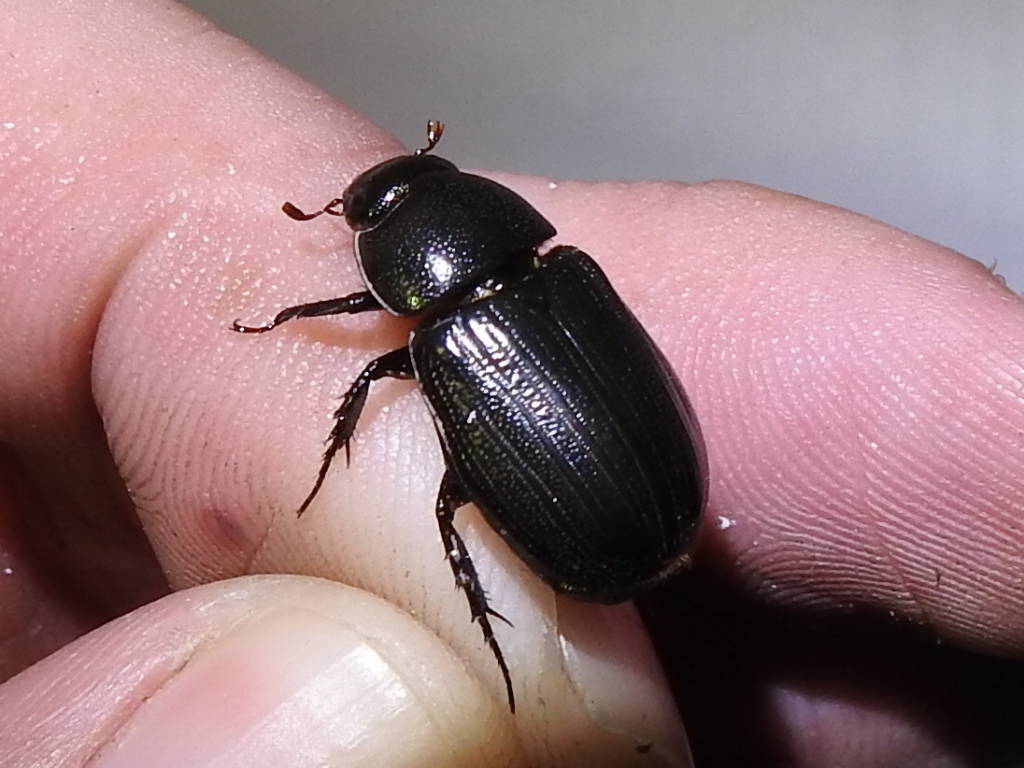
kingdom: Animalia
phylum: Arthropoda
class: Insecta
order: Coleoptera
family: Scarabaeidae
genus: Dyscinetus
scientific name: Dyscinetus morator
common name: Rice beetle
